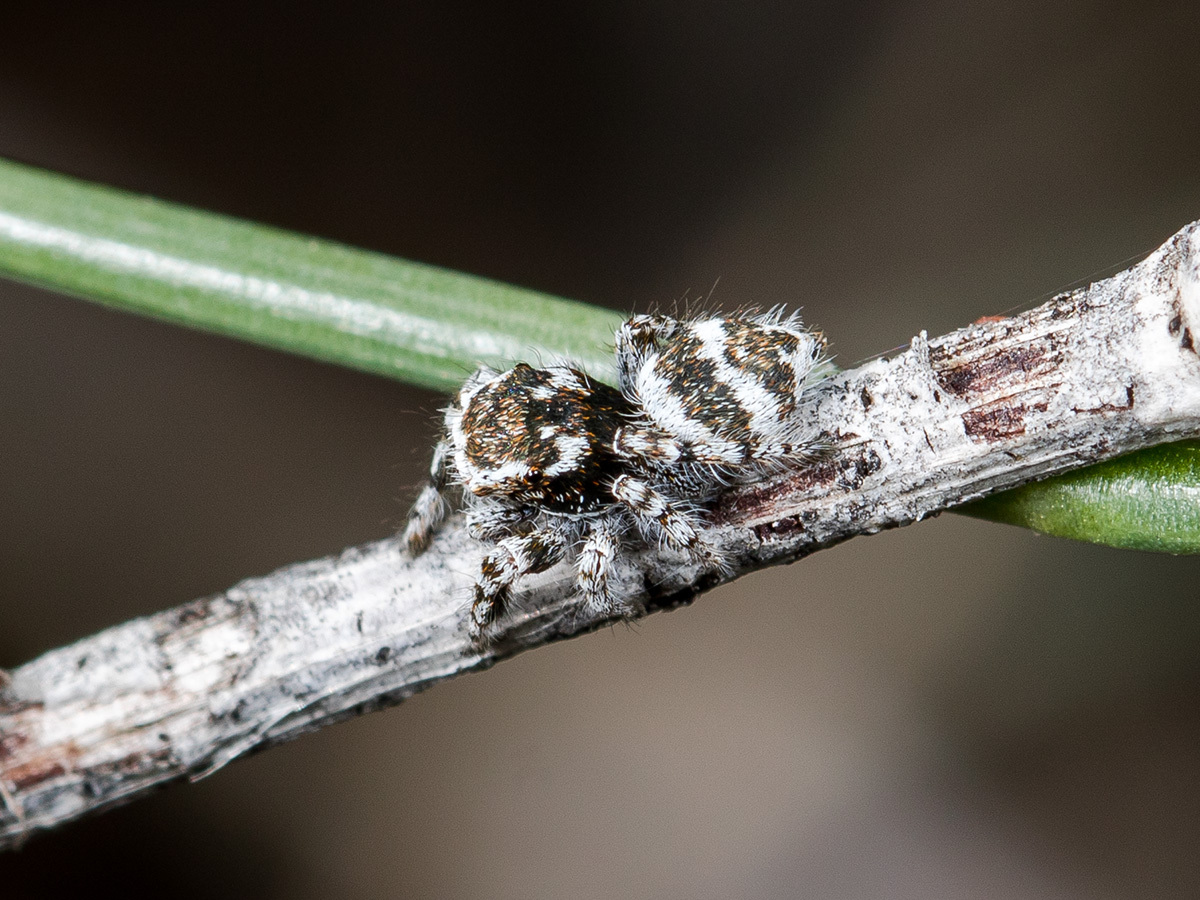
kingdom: Animalia
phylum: Arthropoda
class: Arachnida
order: Araneae
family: Salticidae
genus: Pseudomogrus
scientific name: Pseudomogrus albocinctus
